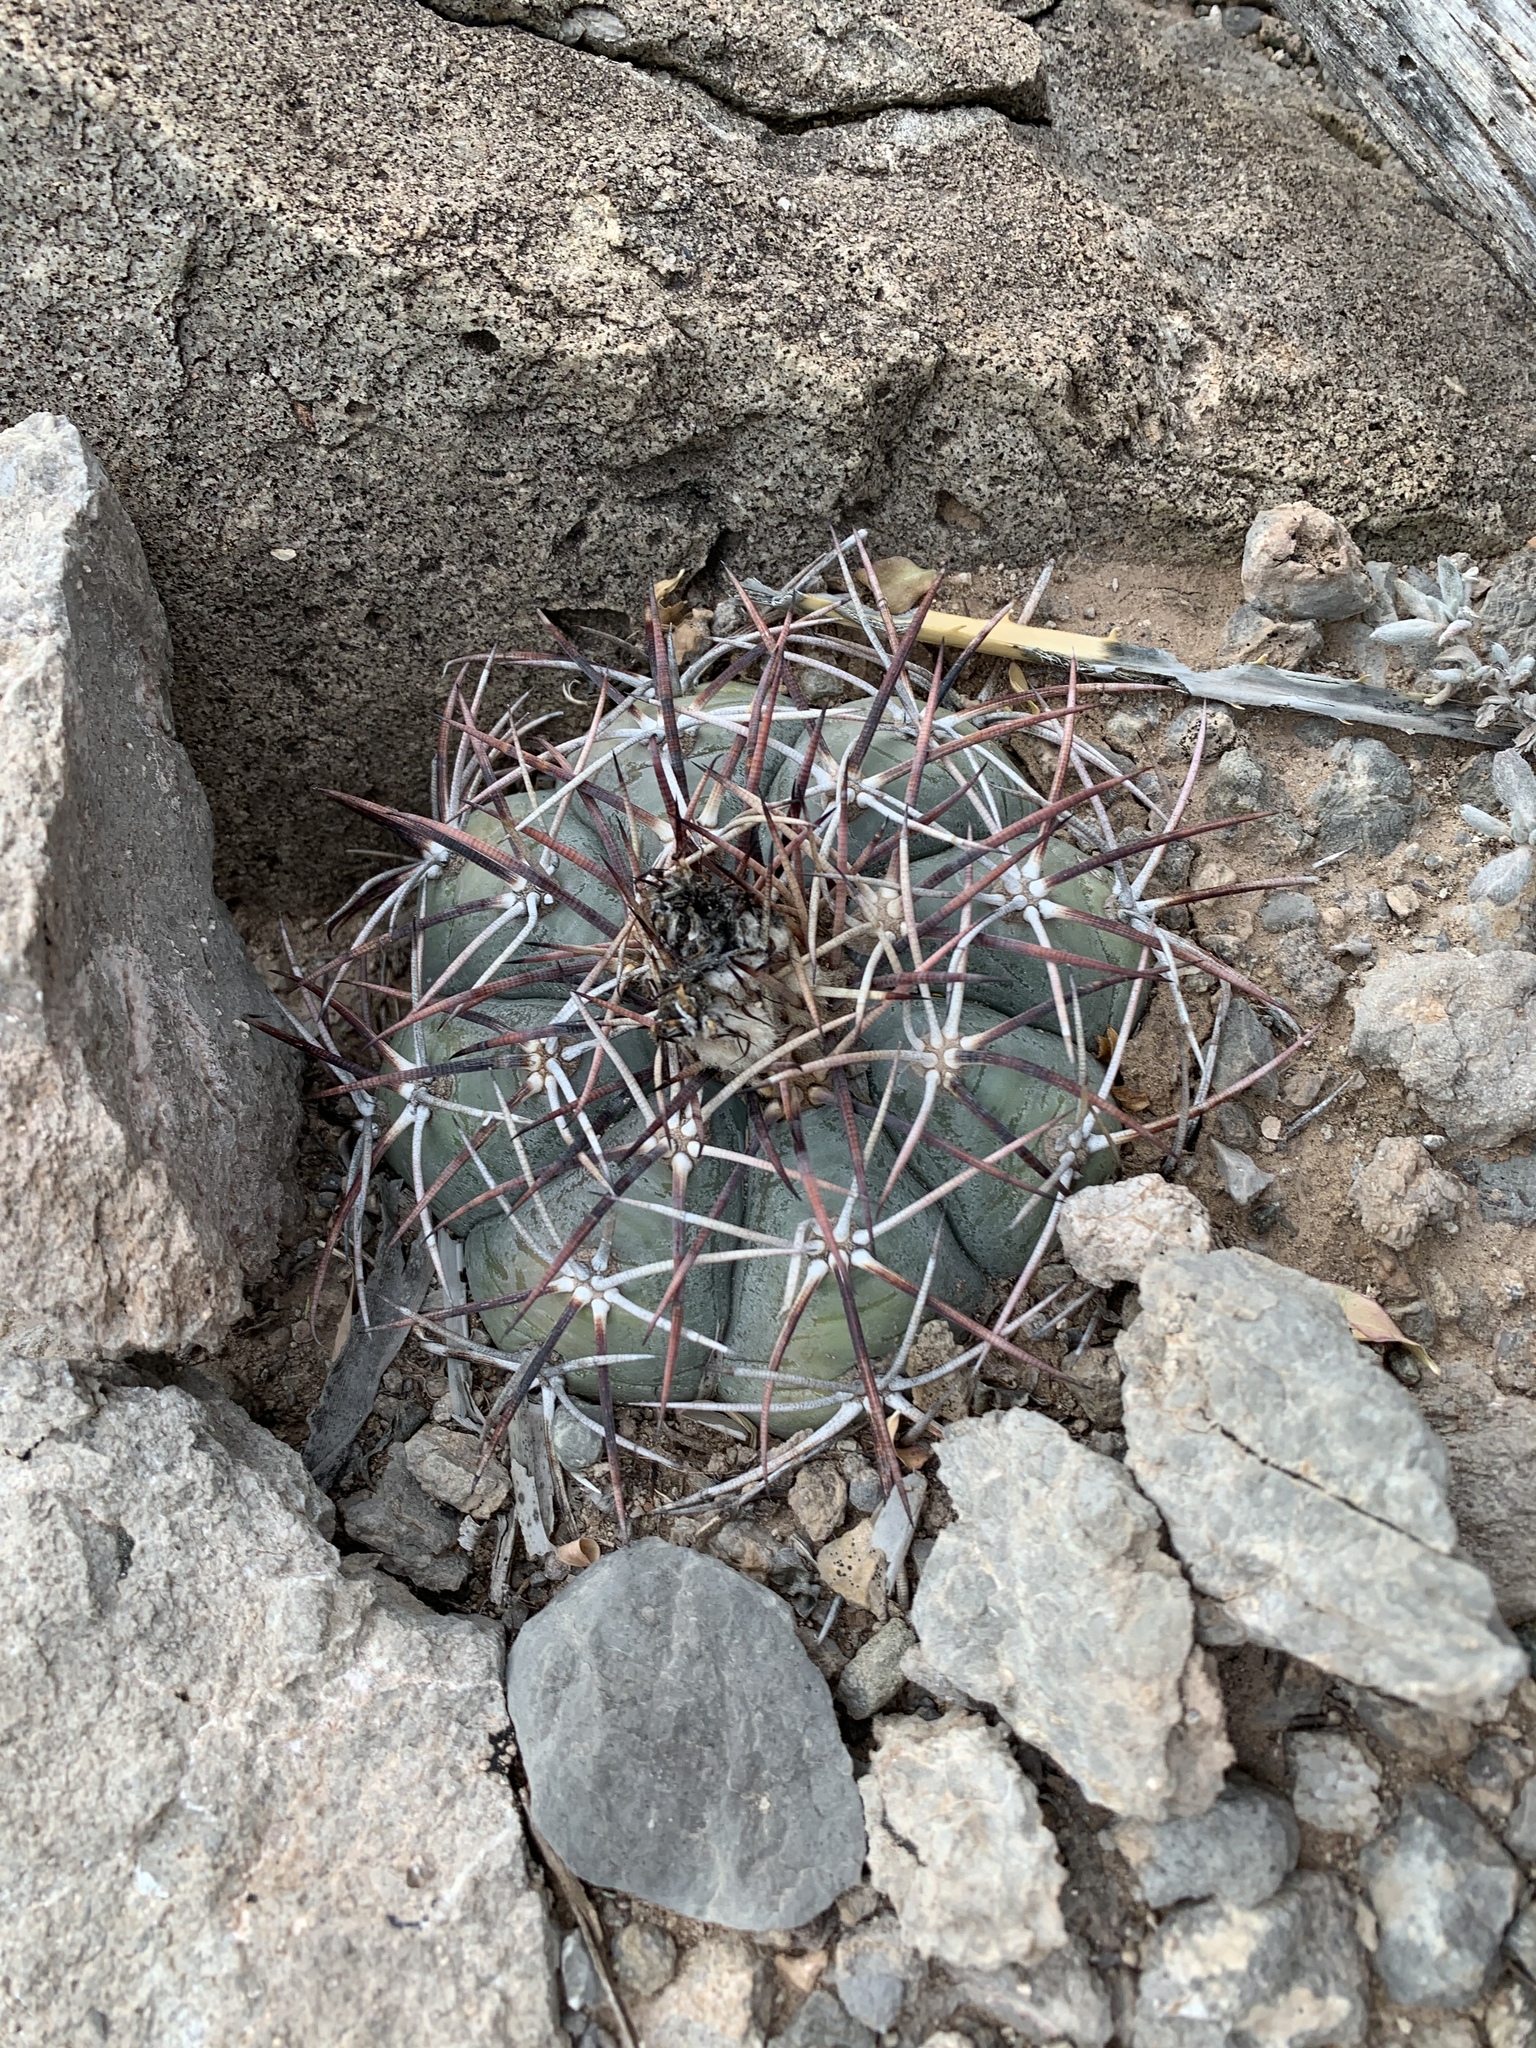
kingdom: Plantae
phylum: Tracheophyta
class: Magnoliopsida
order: Caryophyllales
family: Cactaceae
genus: Echinocactus
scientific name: Echinocactus horizonthalonius
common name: Devilshead
